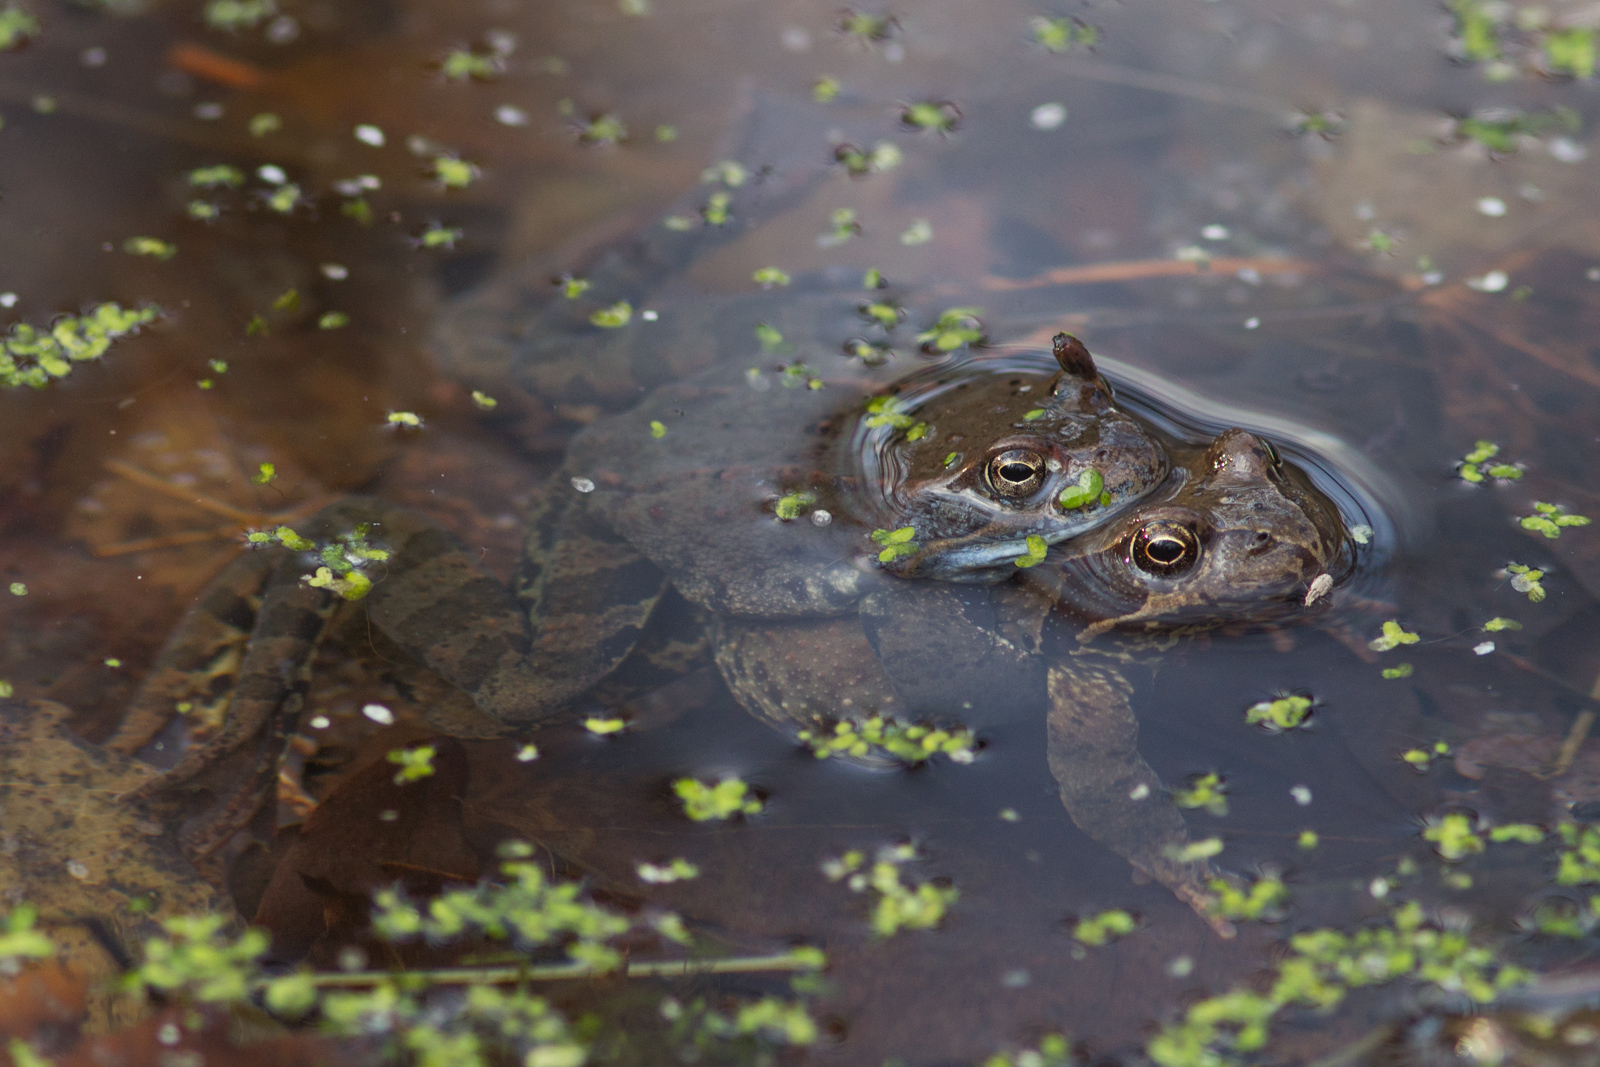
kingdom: Animalia
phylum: Chordata
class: Amphibia
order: Anura
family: Ranidae
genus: Rana
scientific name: Rana temporaria
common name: Common frog
